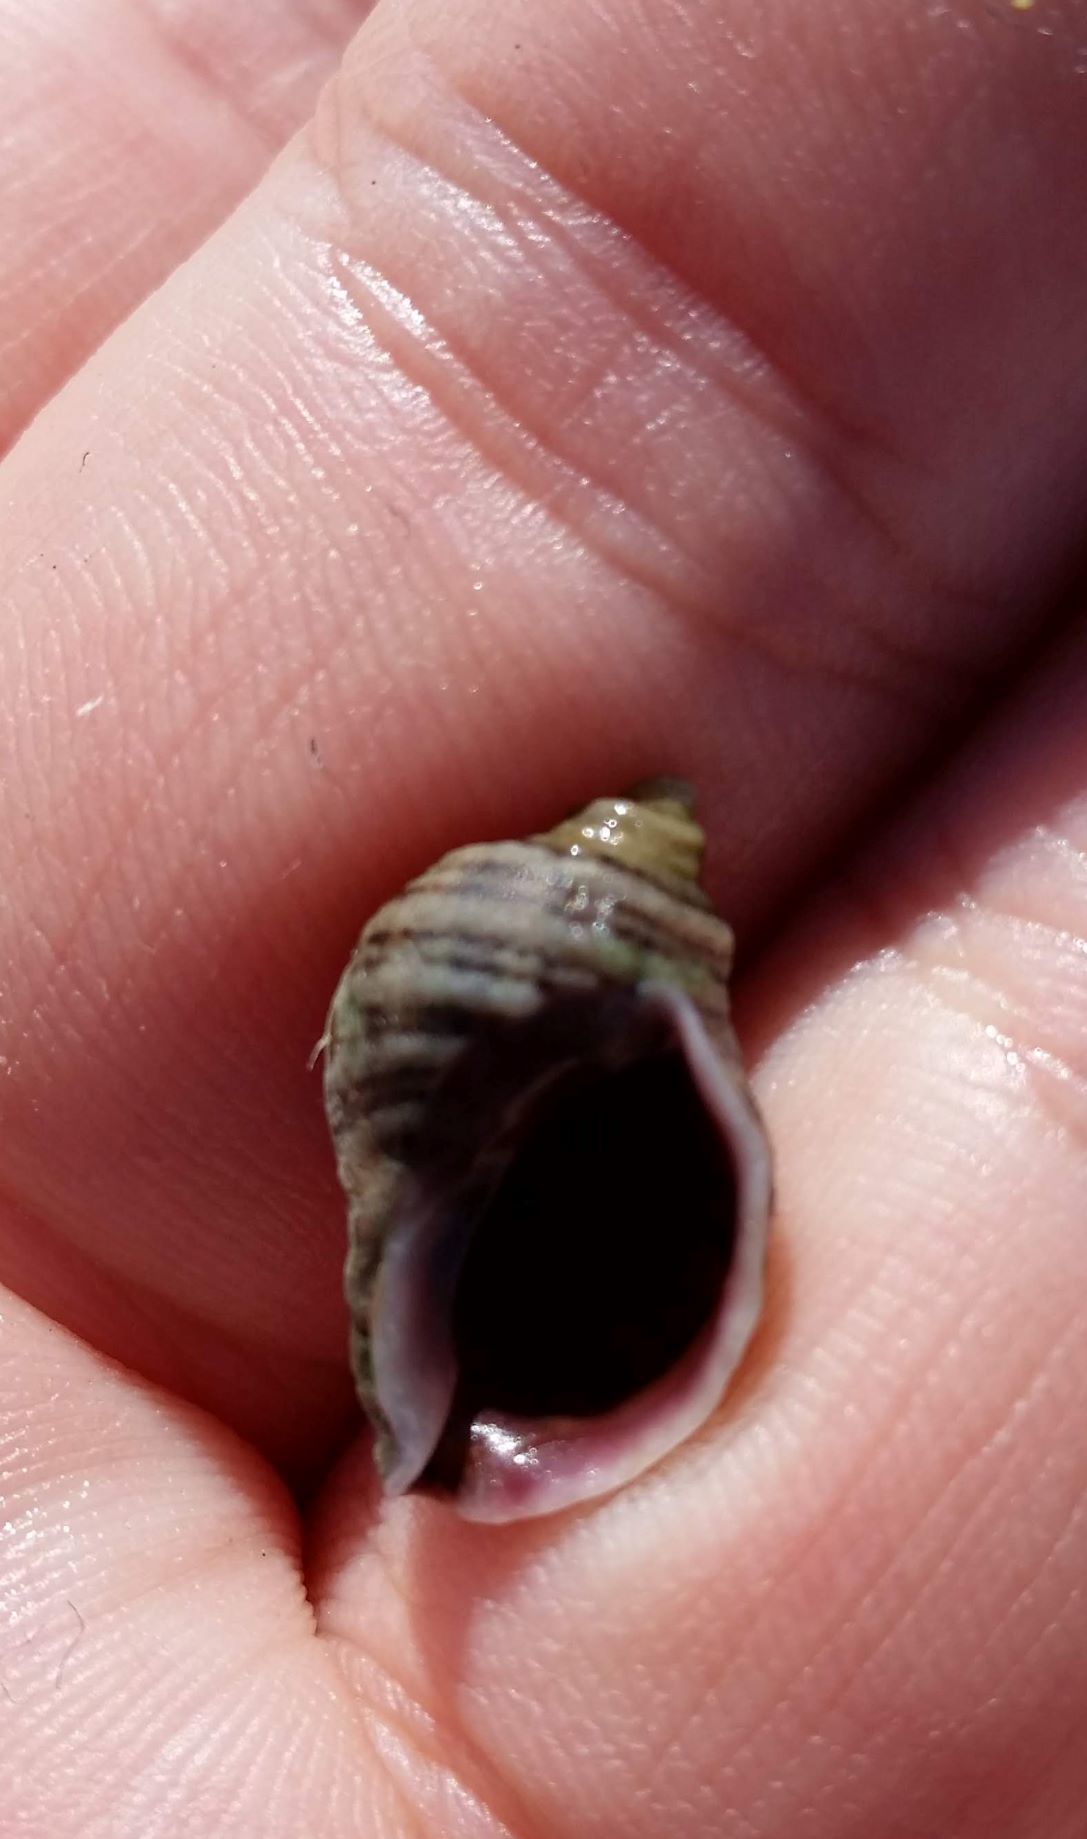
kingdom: Animalia
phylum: Mollusca
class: Gastropoda
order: Neogastropoda
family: Muricidae
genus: Nucella
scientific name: Nucella ostrina
